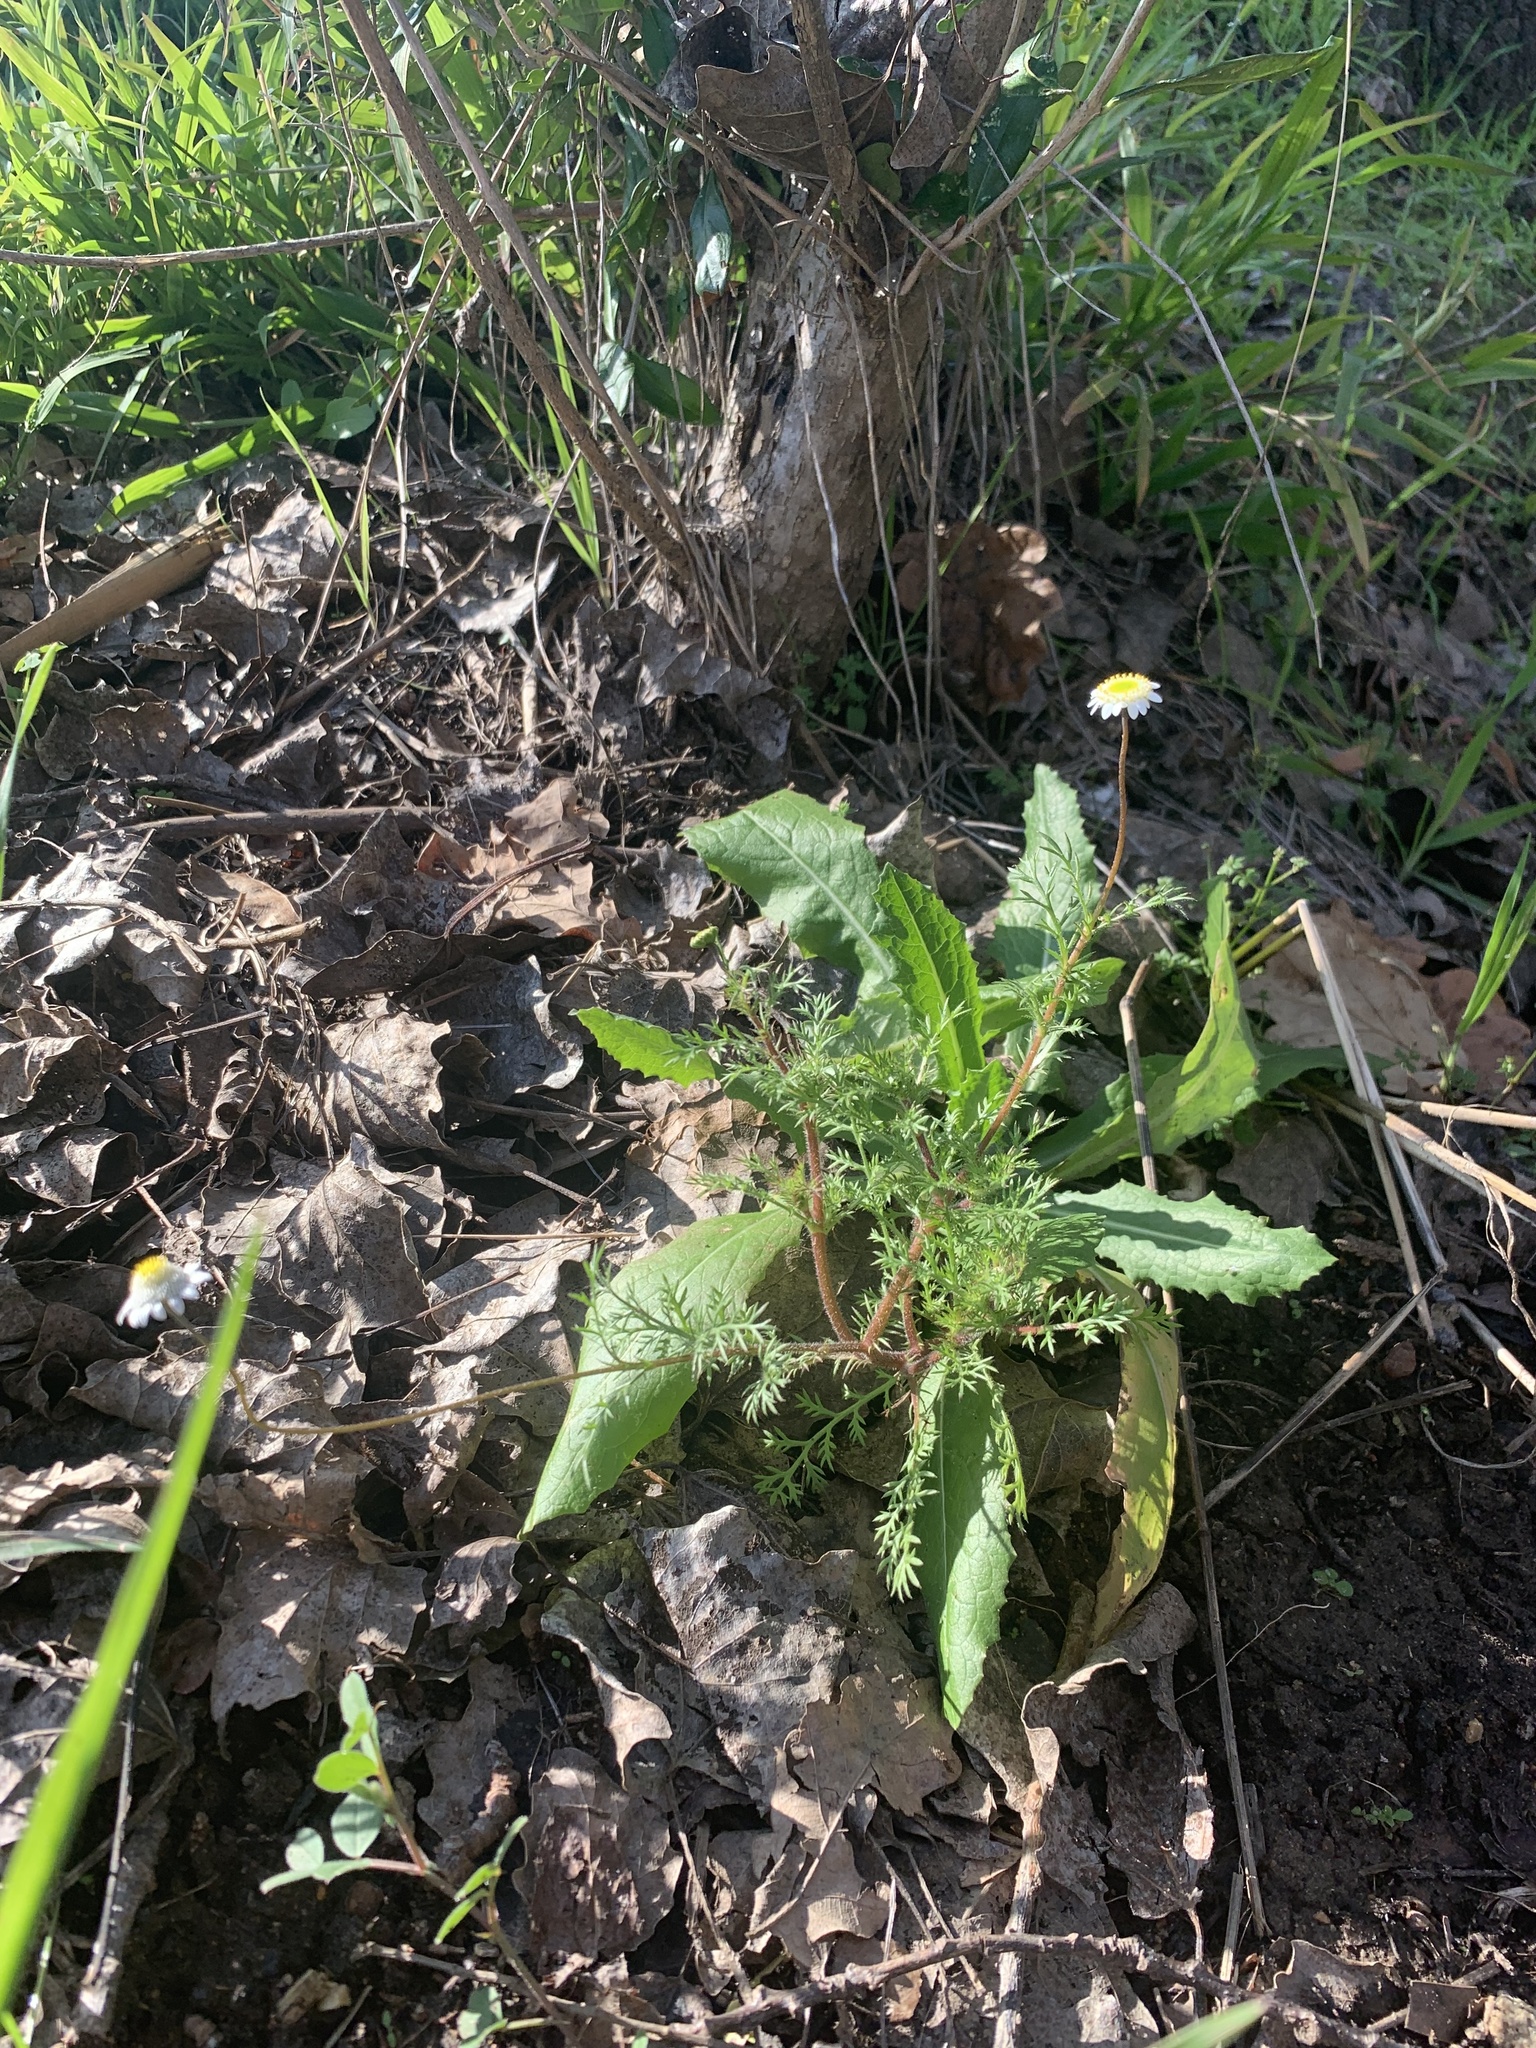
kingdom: Plantae
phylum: Tracheophyta
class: Magnoliopsida
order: Asterales
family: Asteraceae
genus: Cotula
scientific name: Cotula turbinata
